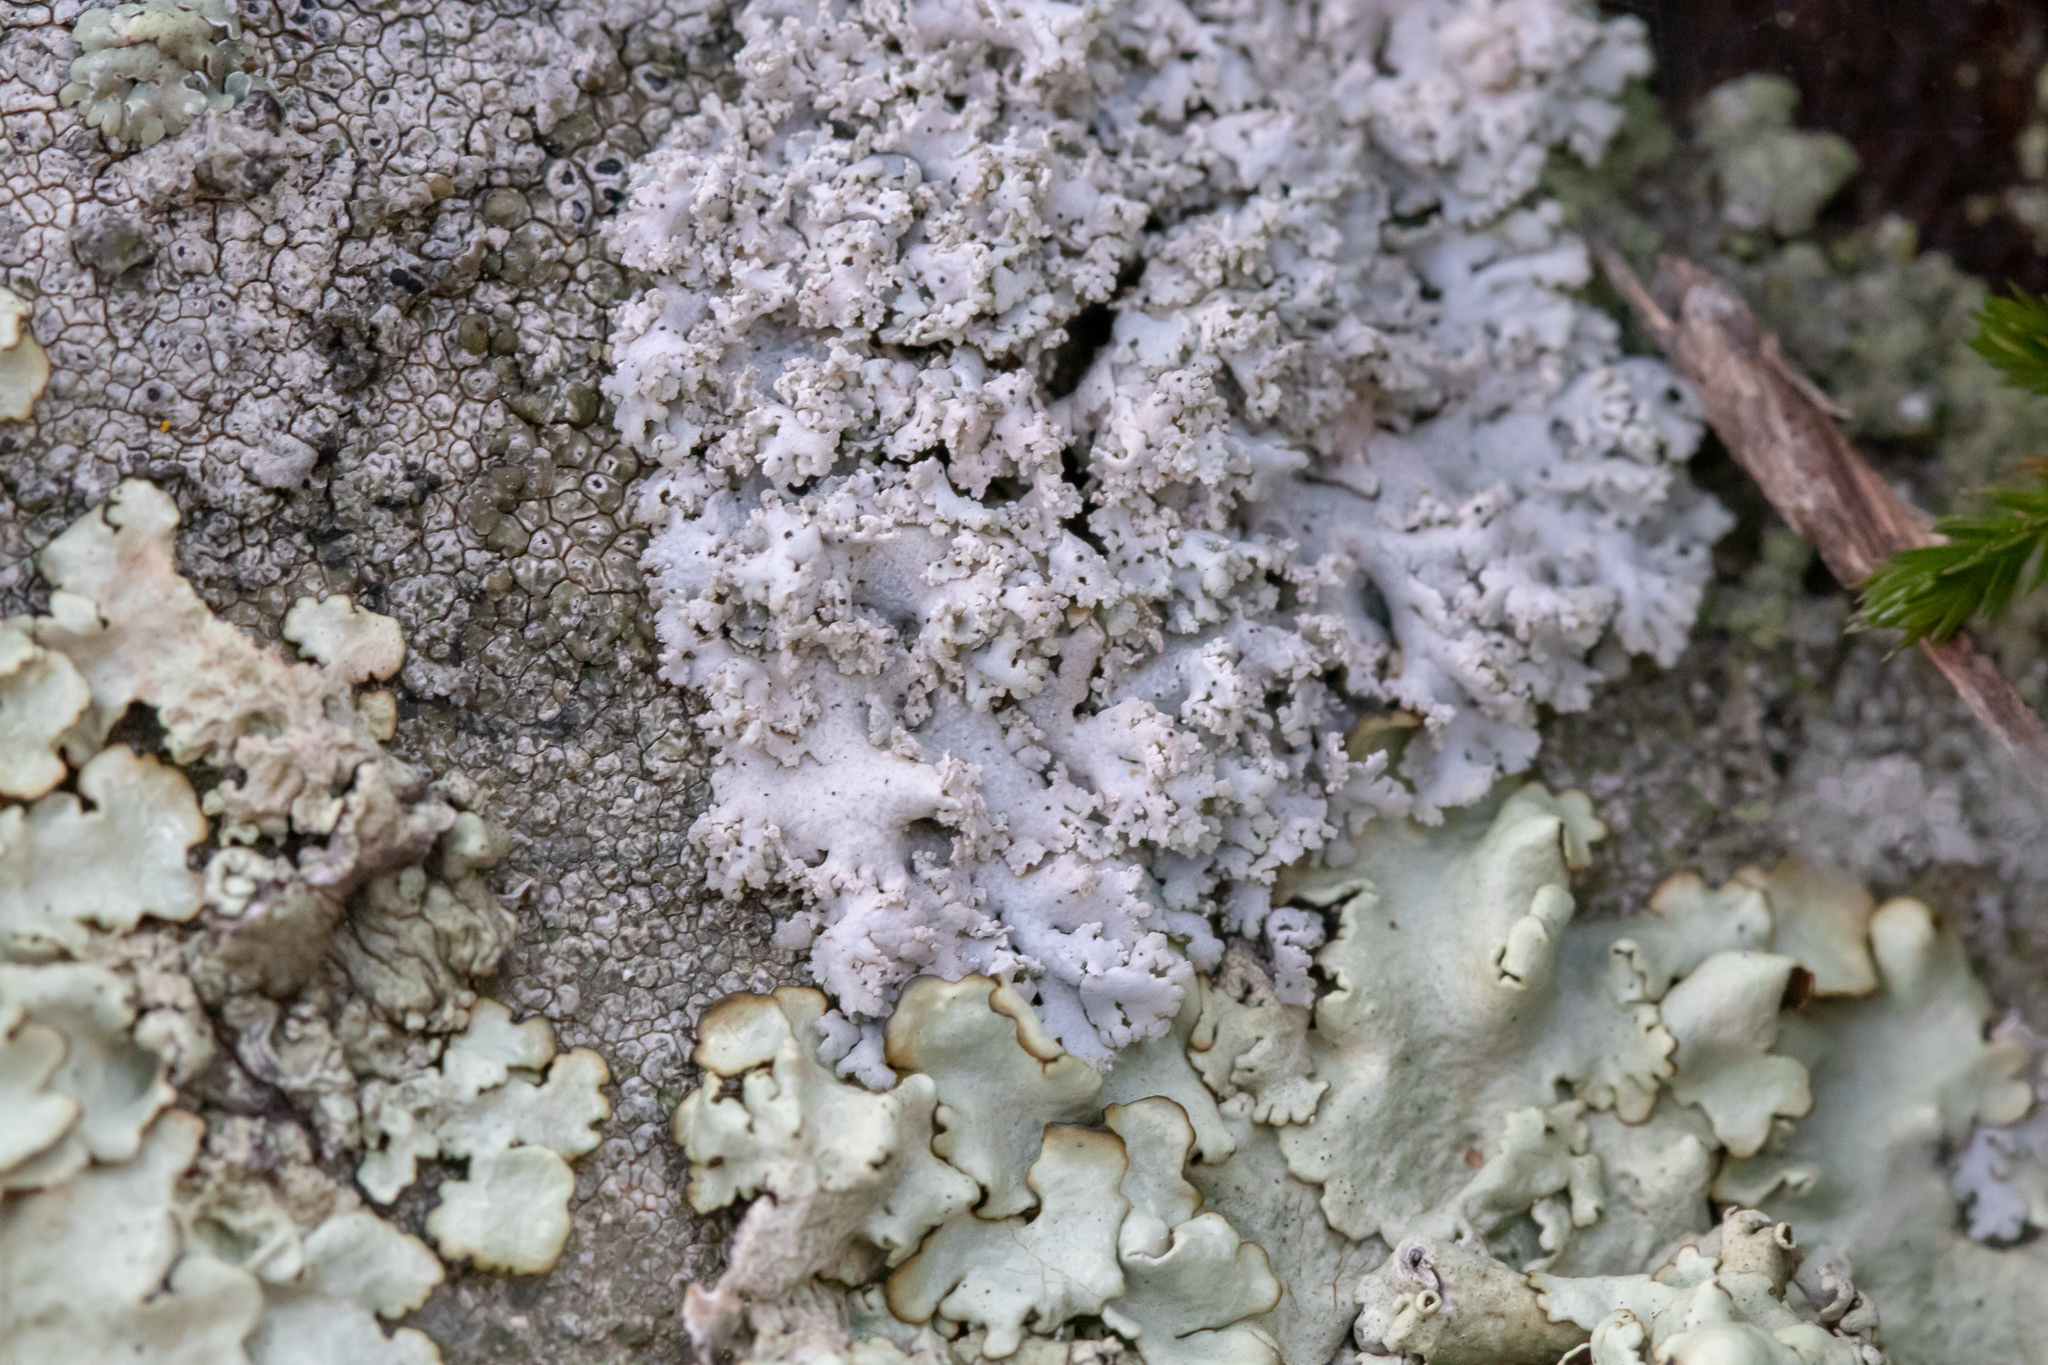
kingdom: Fungi
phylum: Ascomycota
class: Lecanoromycetes
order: Caliciales
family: Physciaceae
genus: Physcia
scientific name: Physcia tribacia
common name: Beaded rosette lichen
